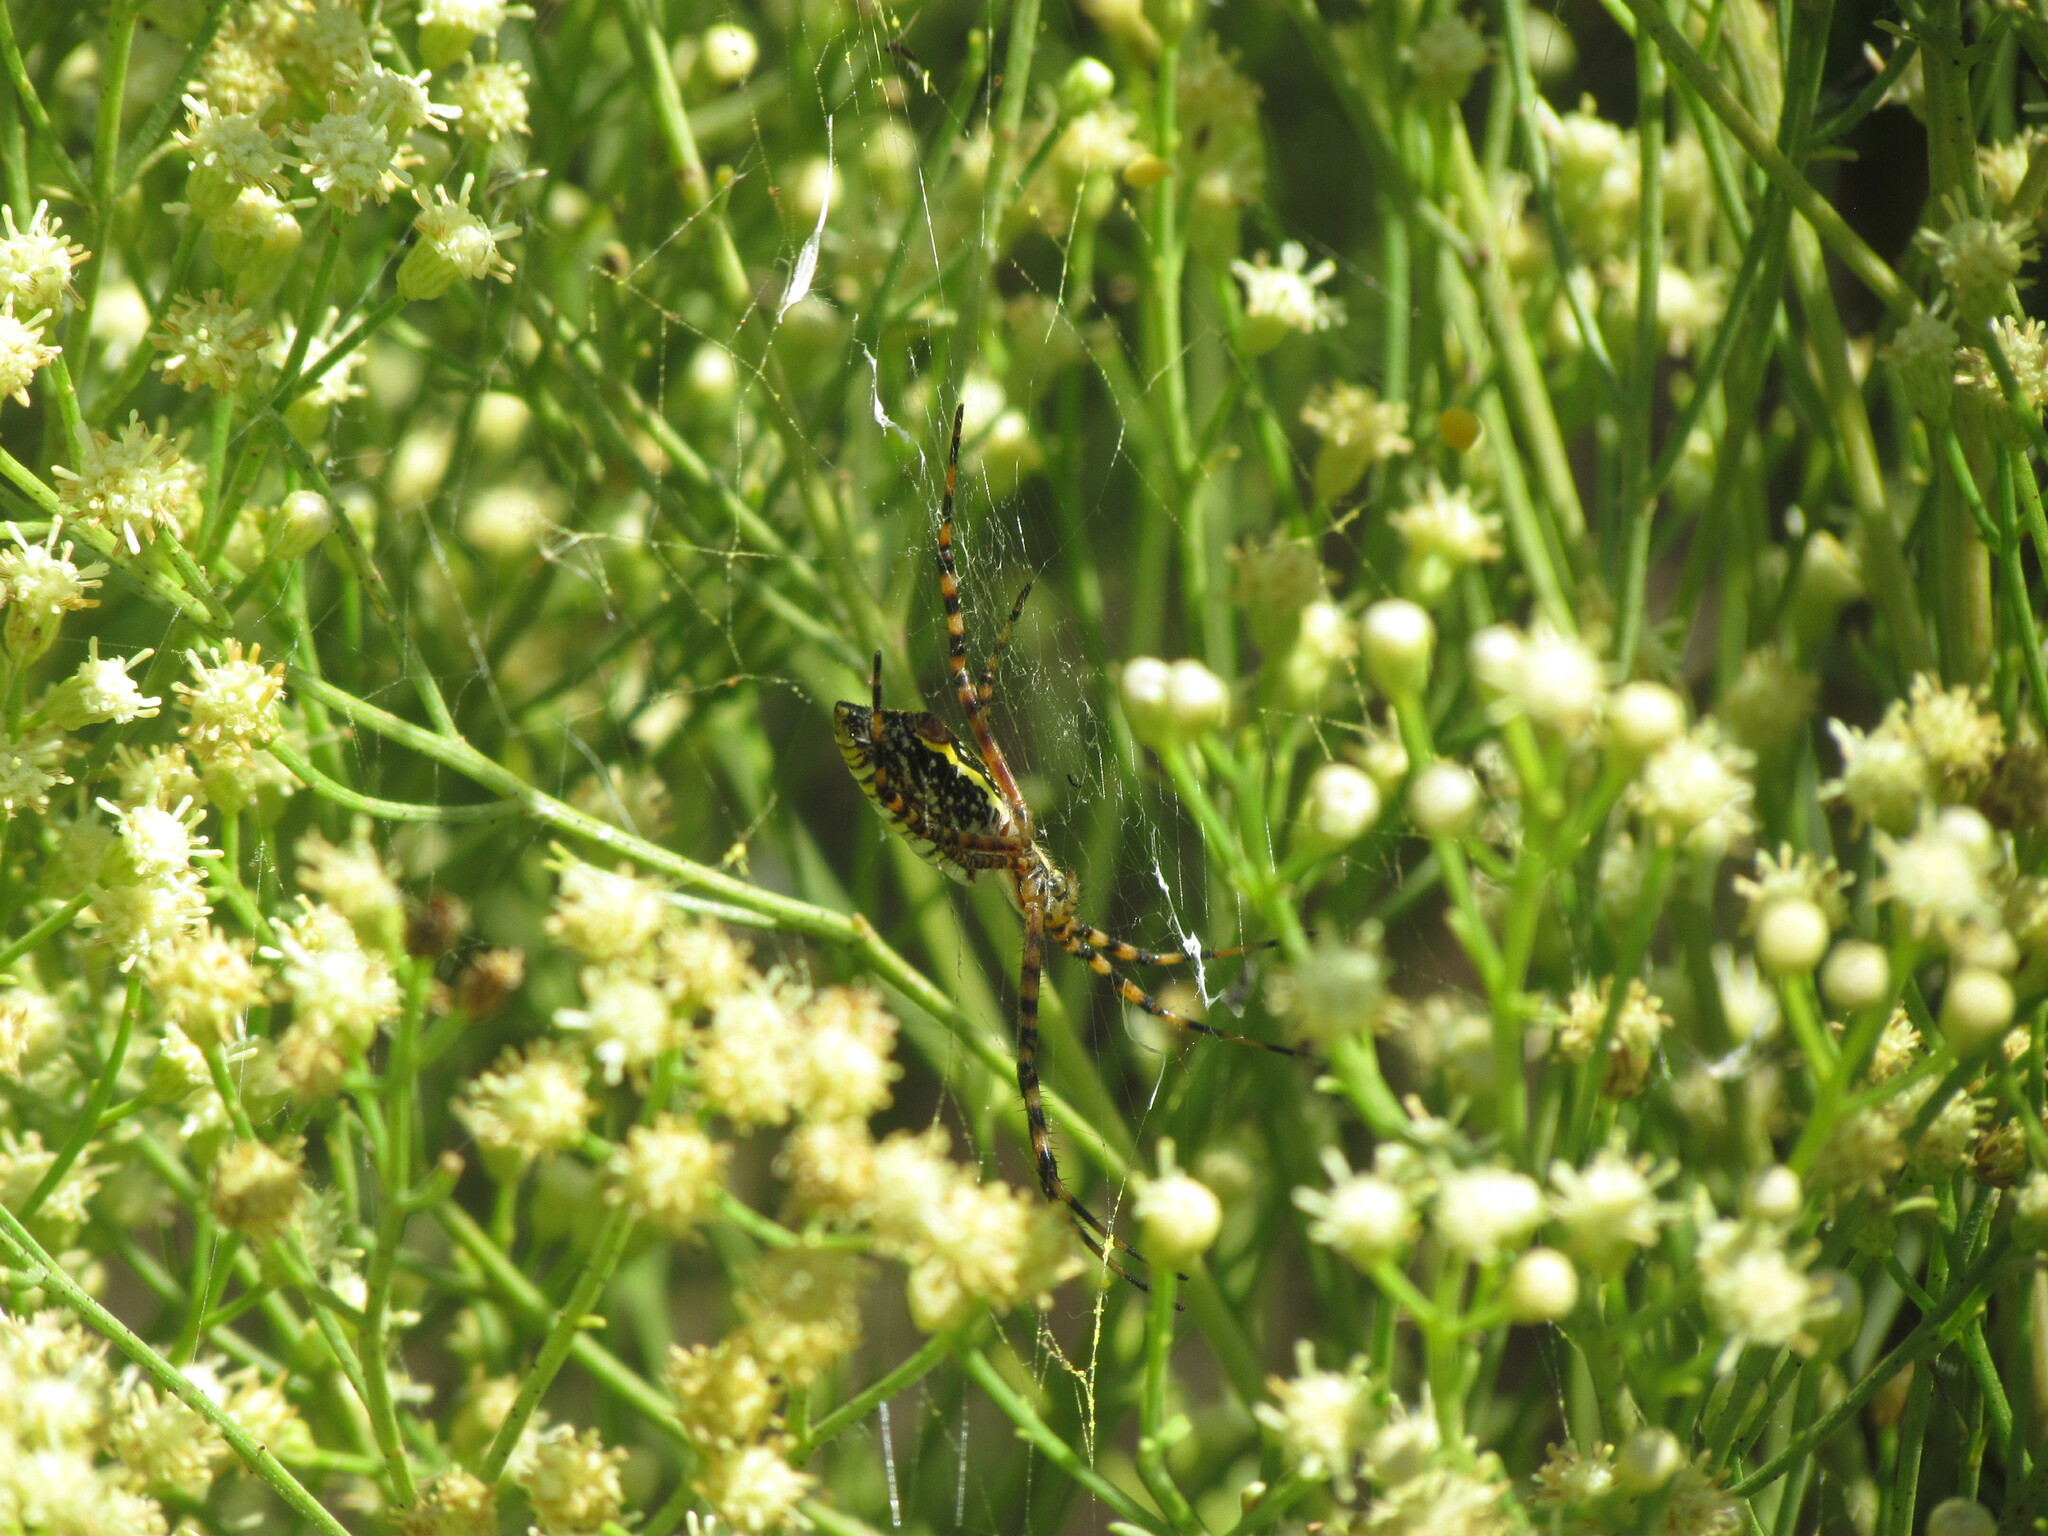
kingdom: Animalia
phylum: Arthropoda
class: Arachnida
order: Araneae
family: Araneidae
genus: Argiope
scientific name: Argiope trifasciata
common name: Banded garden spider
